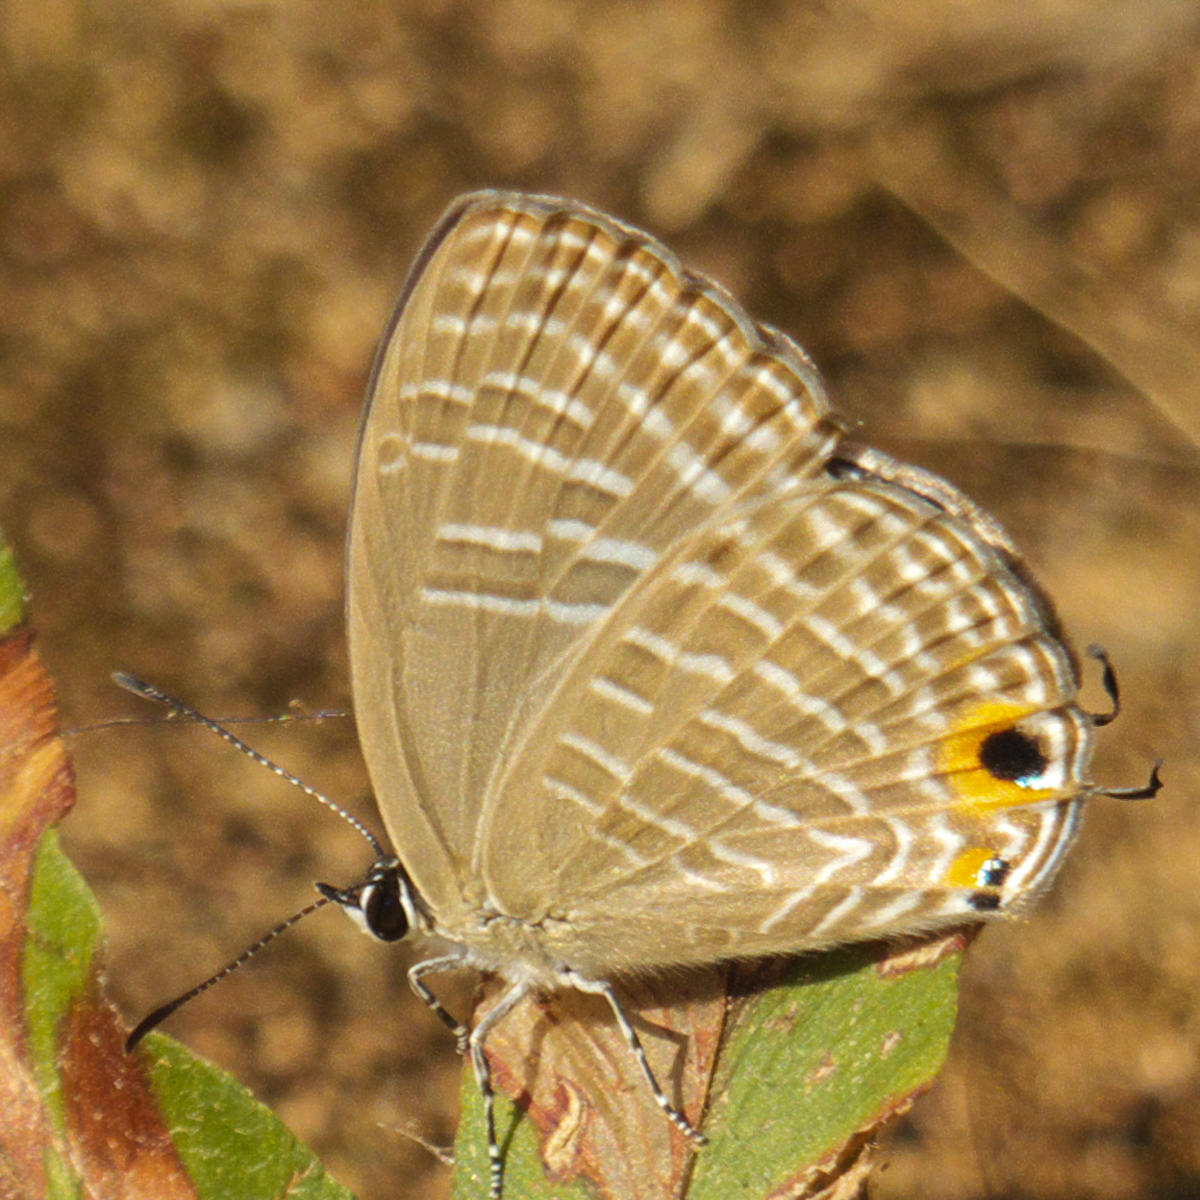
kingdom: Animalia
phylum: Arthropoda
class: Insecta
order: Lepidoptera
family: Lycaenidae
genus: Jamides
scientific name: Jamides alecto
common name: Metallic cerulean
